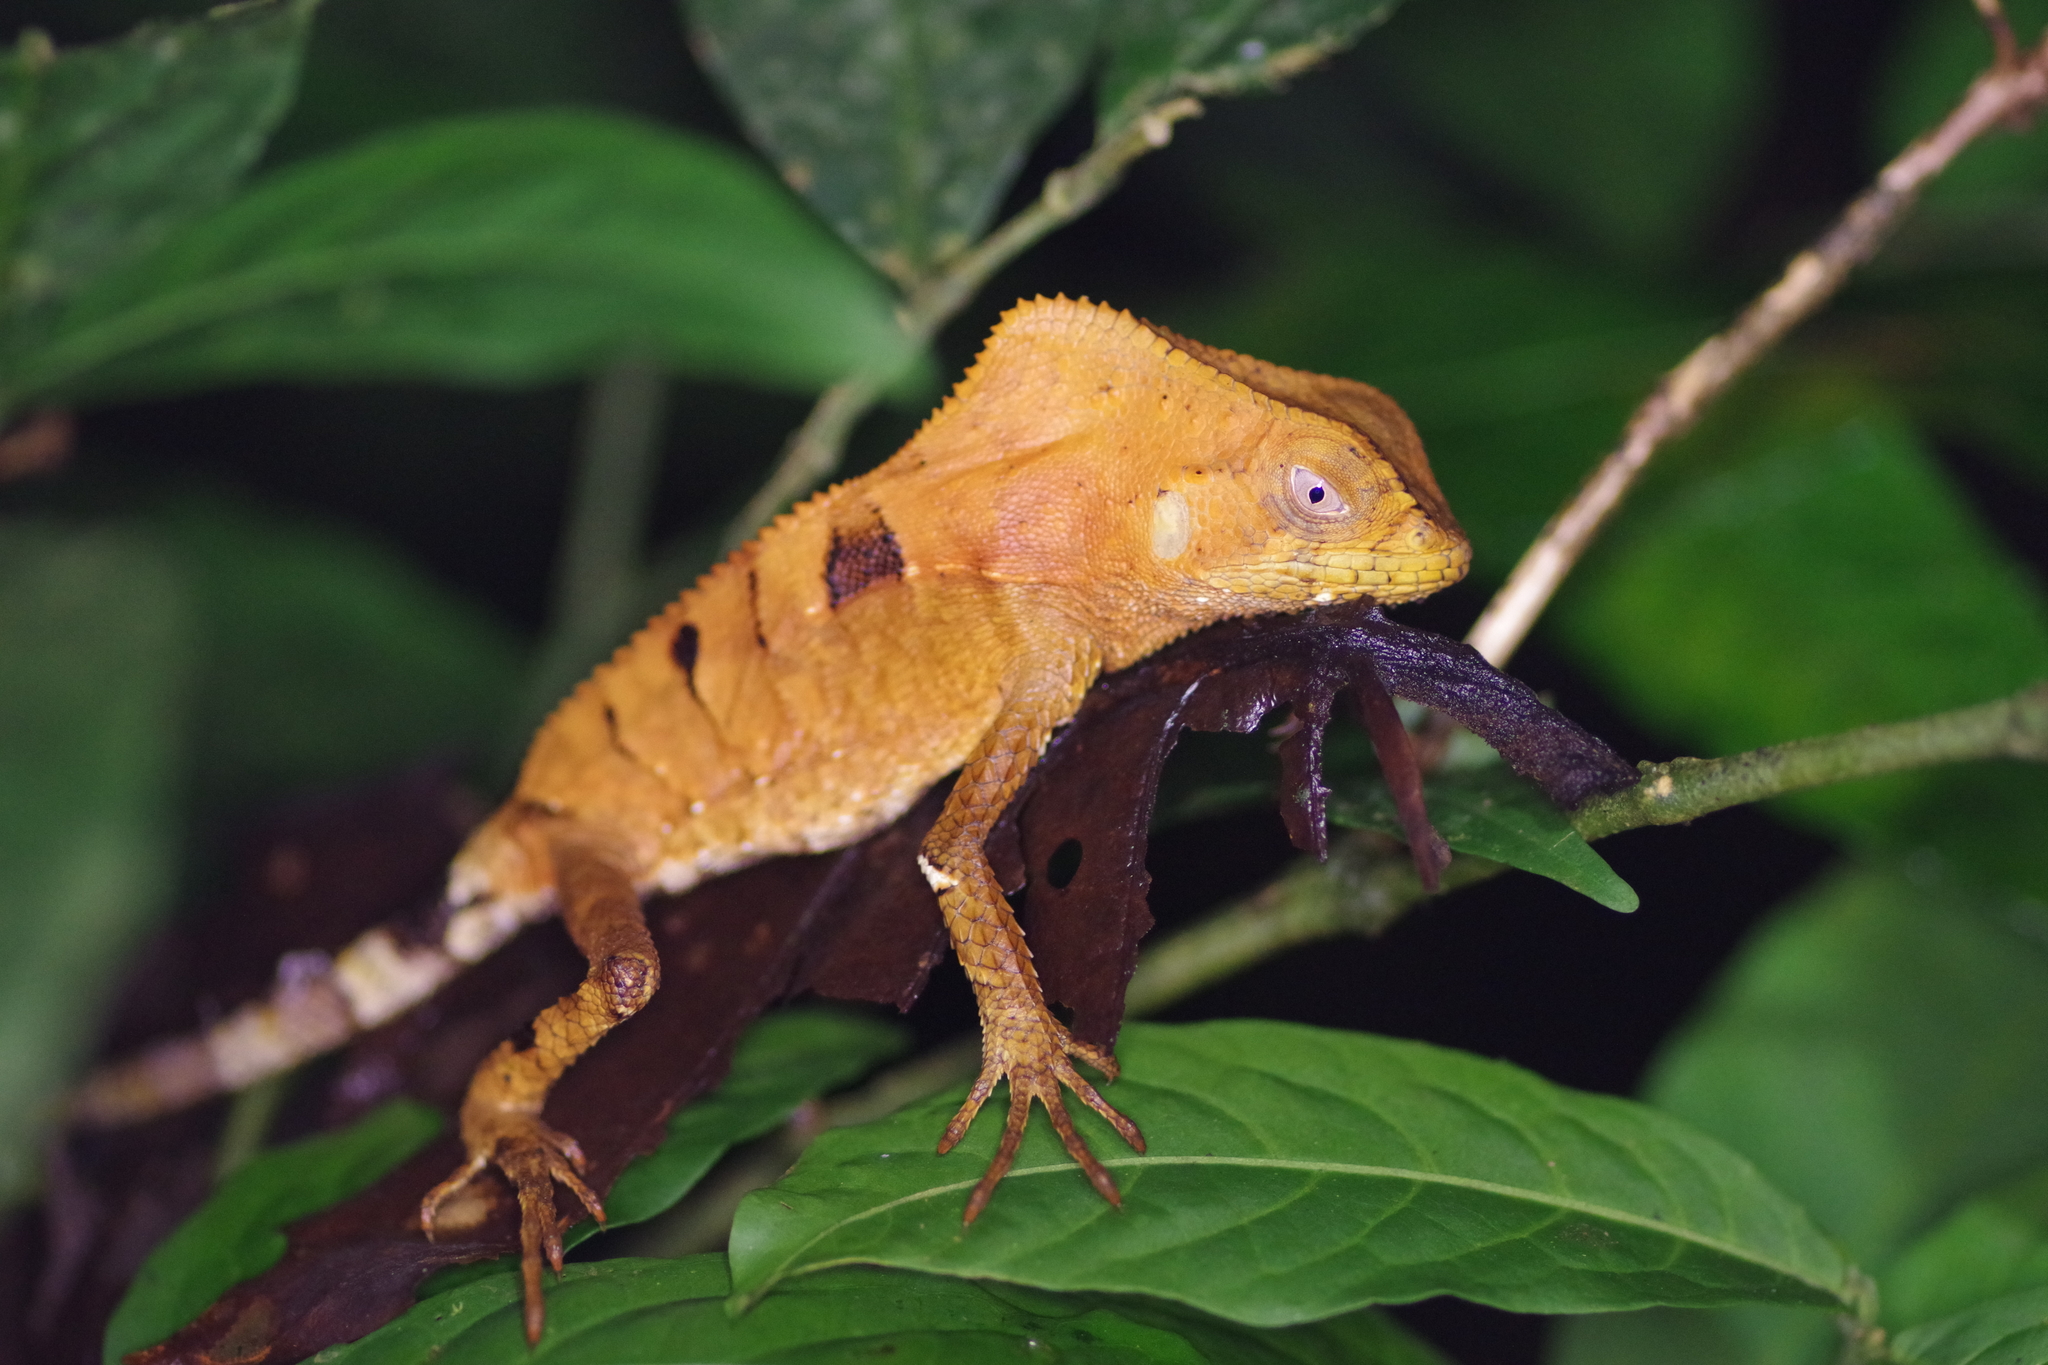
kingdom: Animalia
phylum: Chordata
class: Squamata
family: Corytophanidae
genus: Corytophanes
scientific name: Corytophanes cristatus
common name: Smooth helmeted iguana
